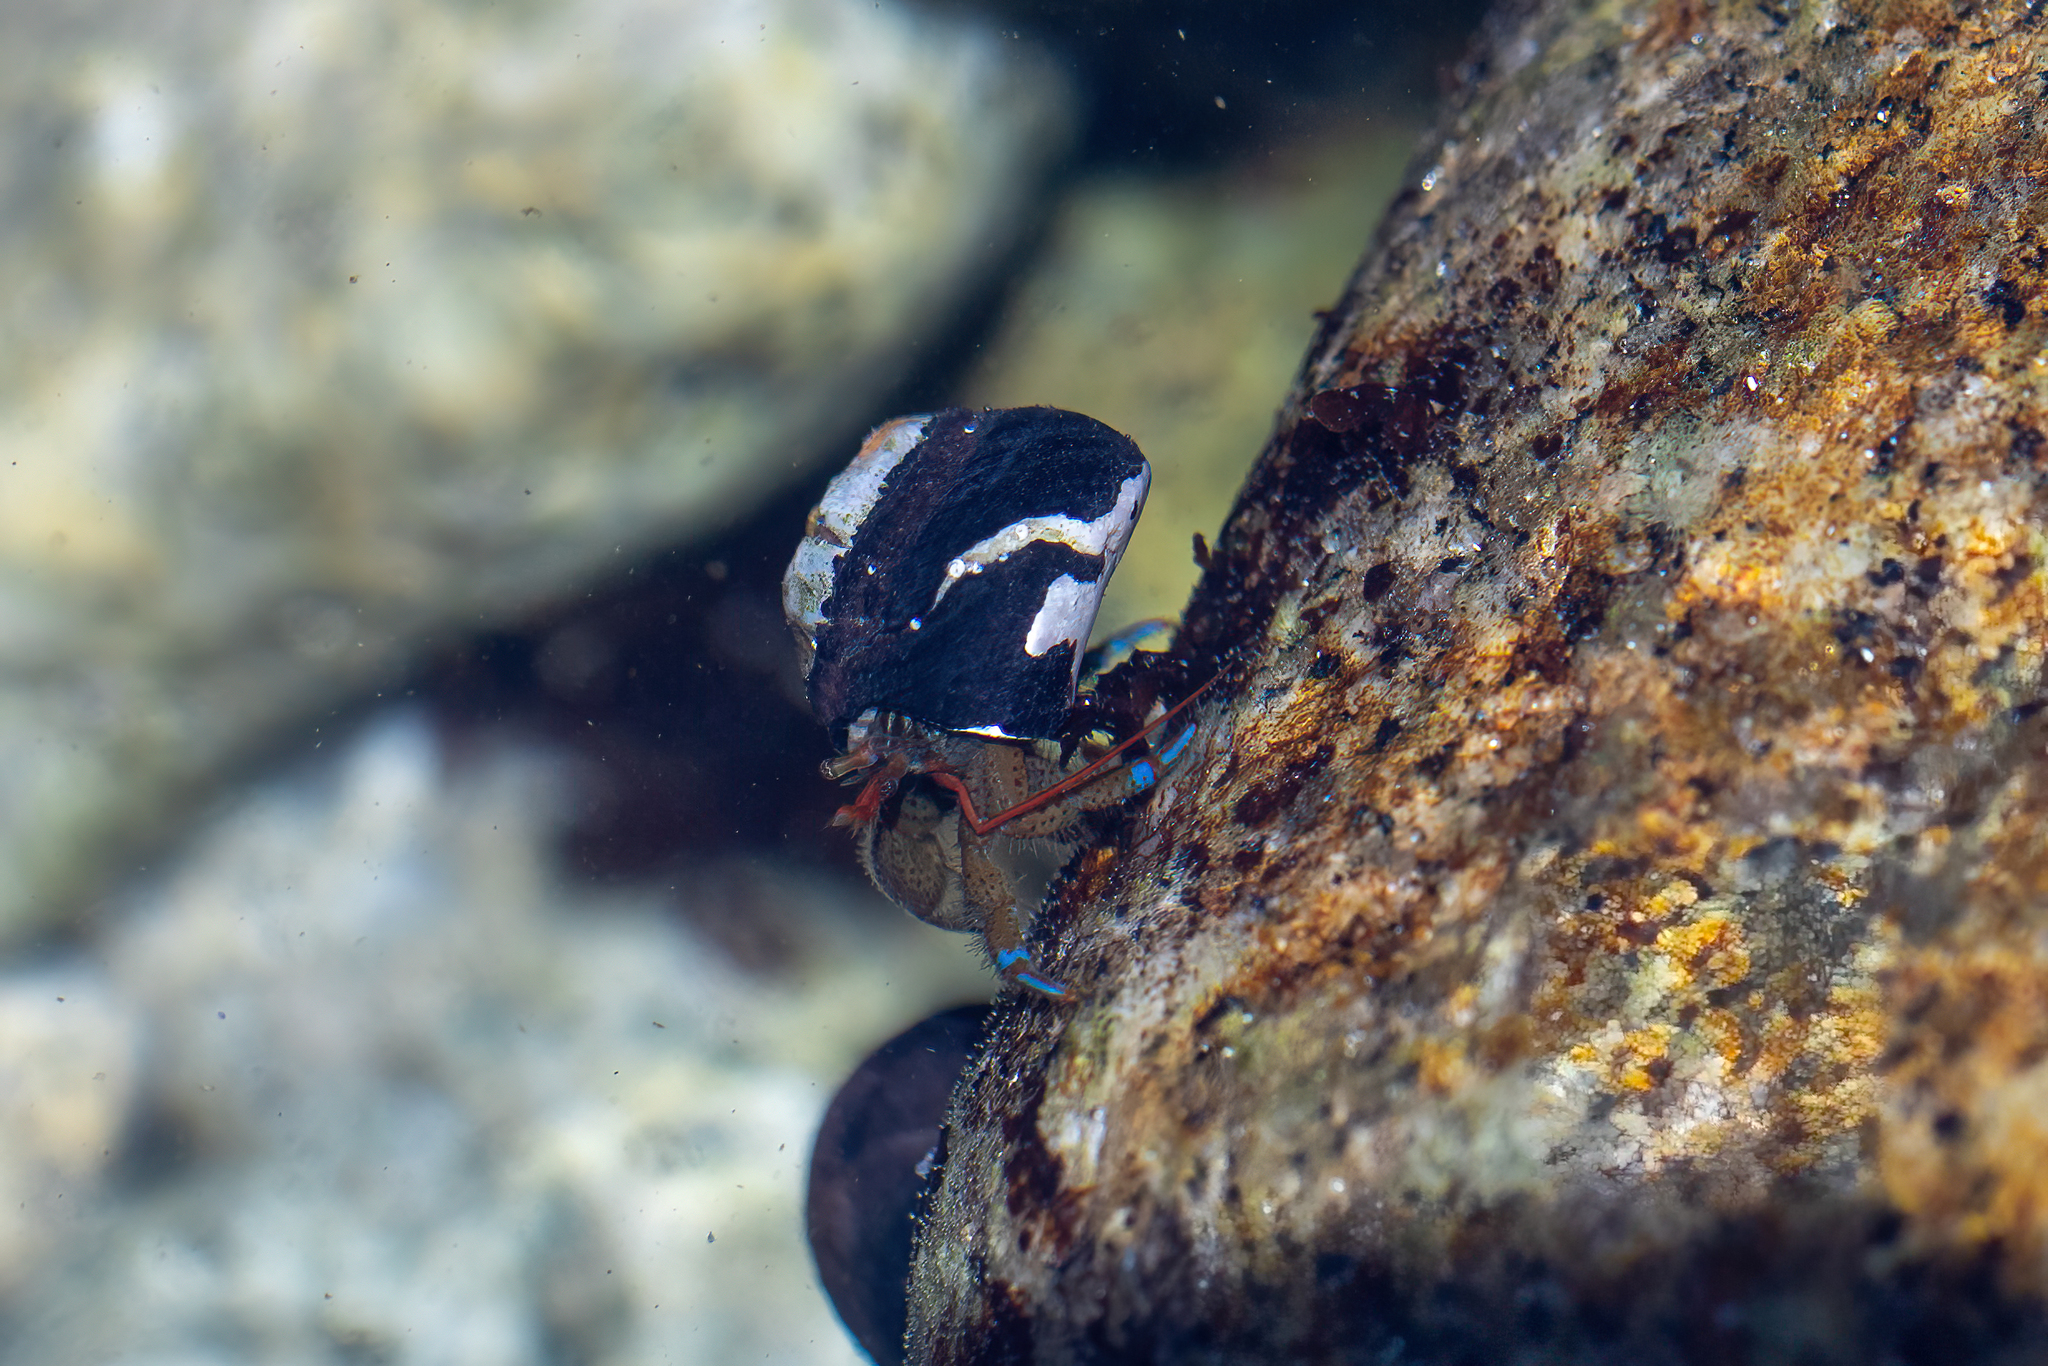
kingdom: Animalia
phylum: Arthropoda
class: Malacostraca
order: Decapoda
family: Paguridae
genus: Pagurus
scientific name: Pagurus samuelis
